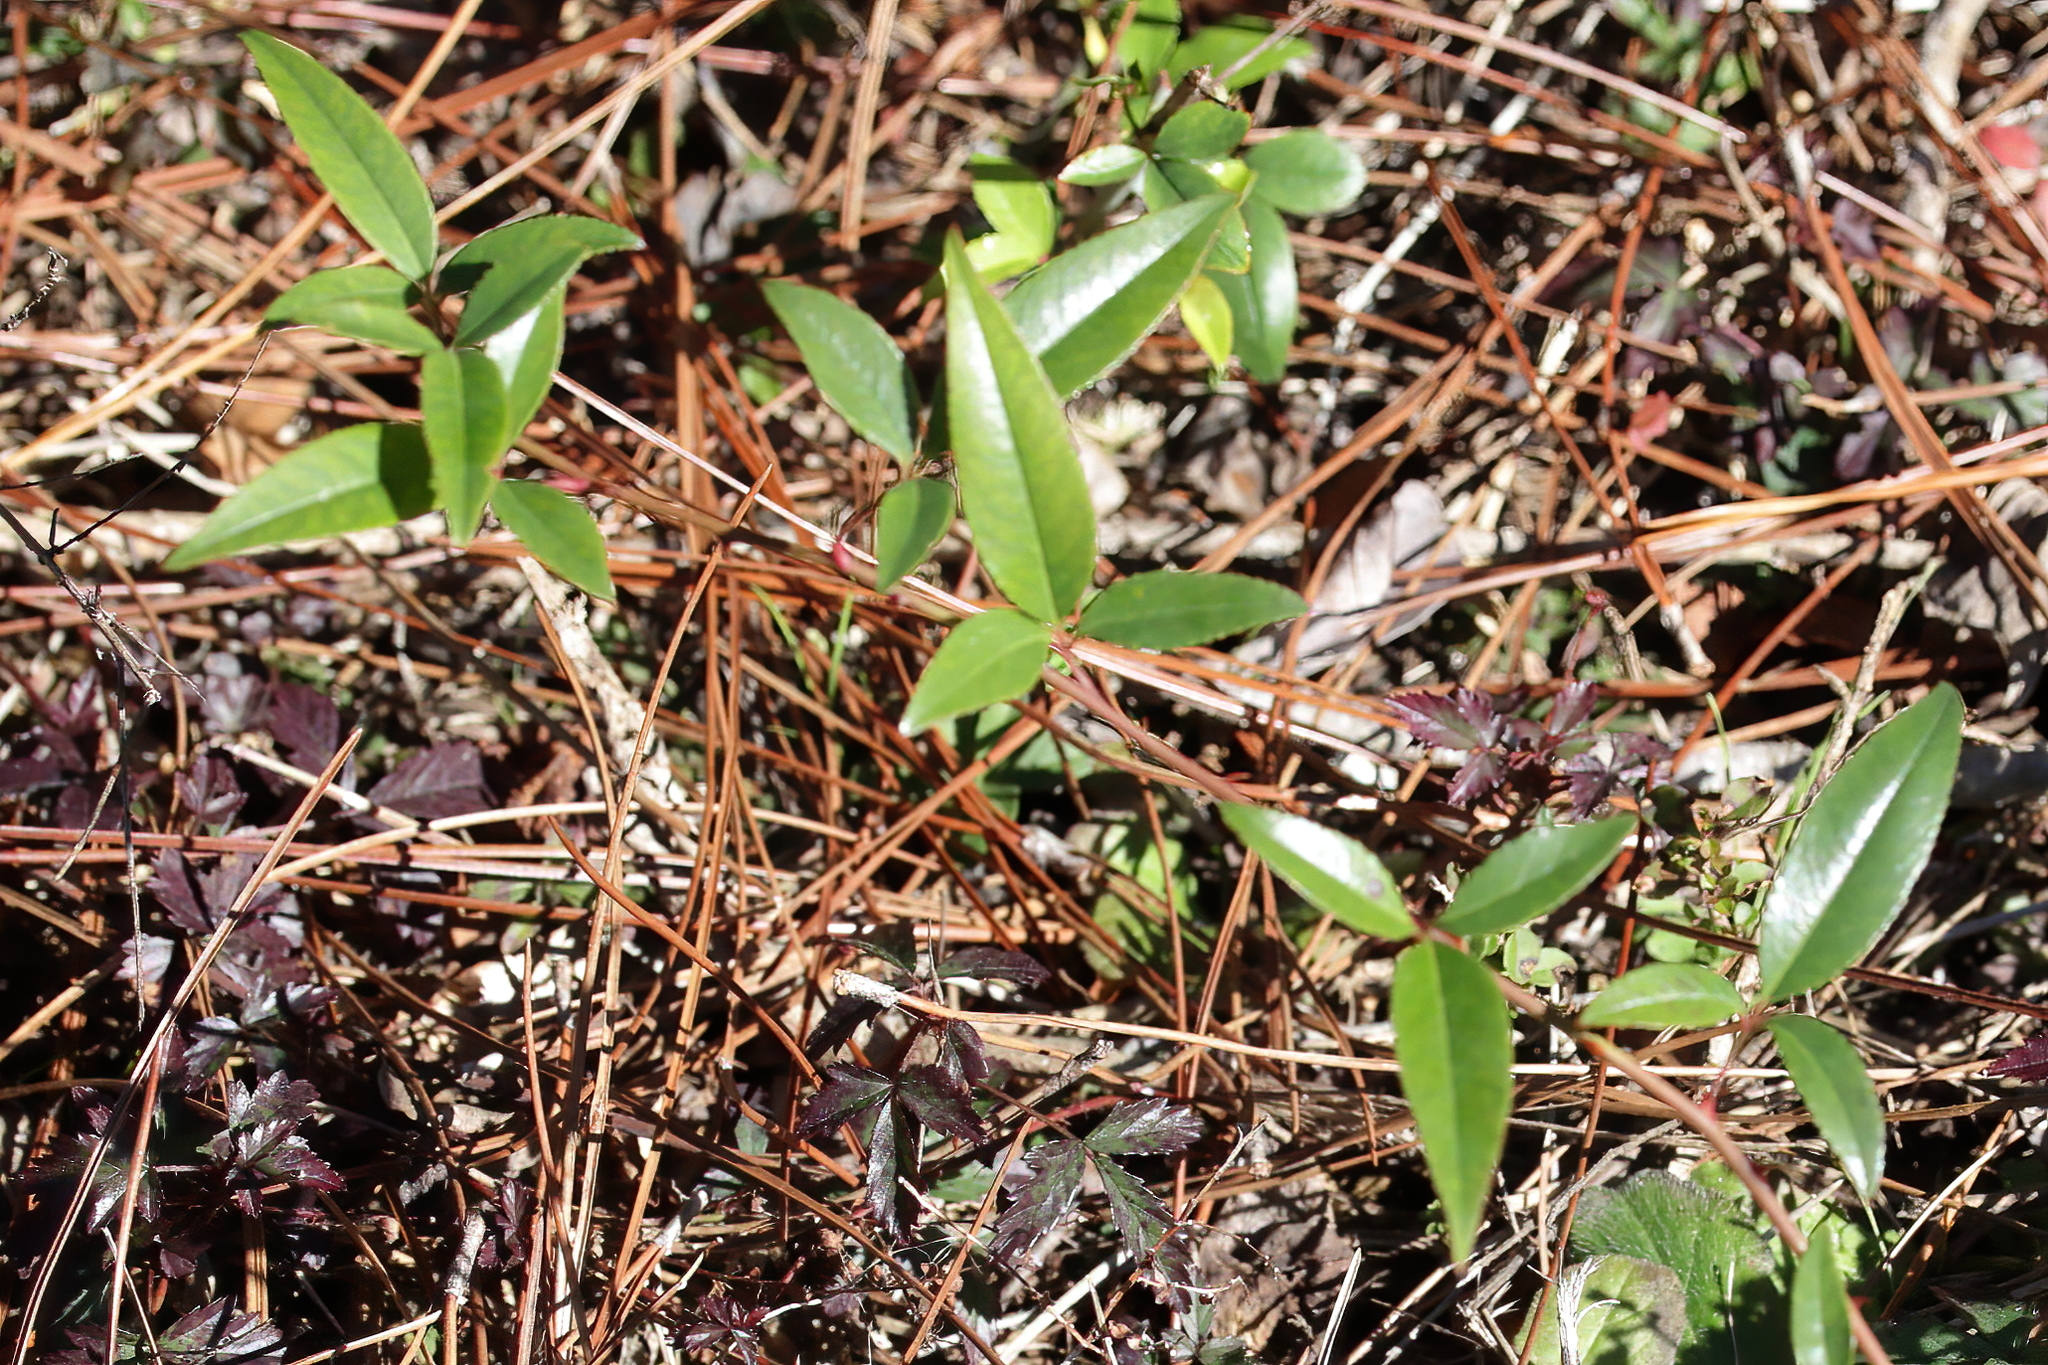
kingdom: Plantae
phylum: Tracheophyta
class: Magnoliopsida
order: Rosales
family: Rosaceae
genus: Rosa
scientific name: Rosa laevigata
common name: Cherokee rose
